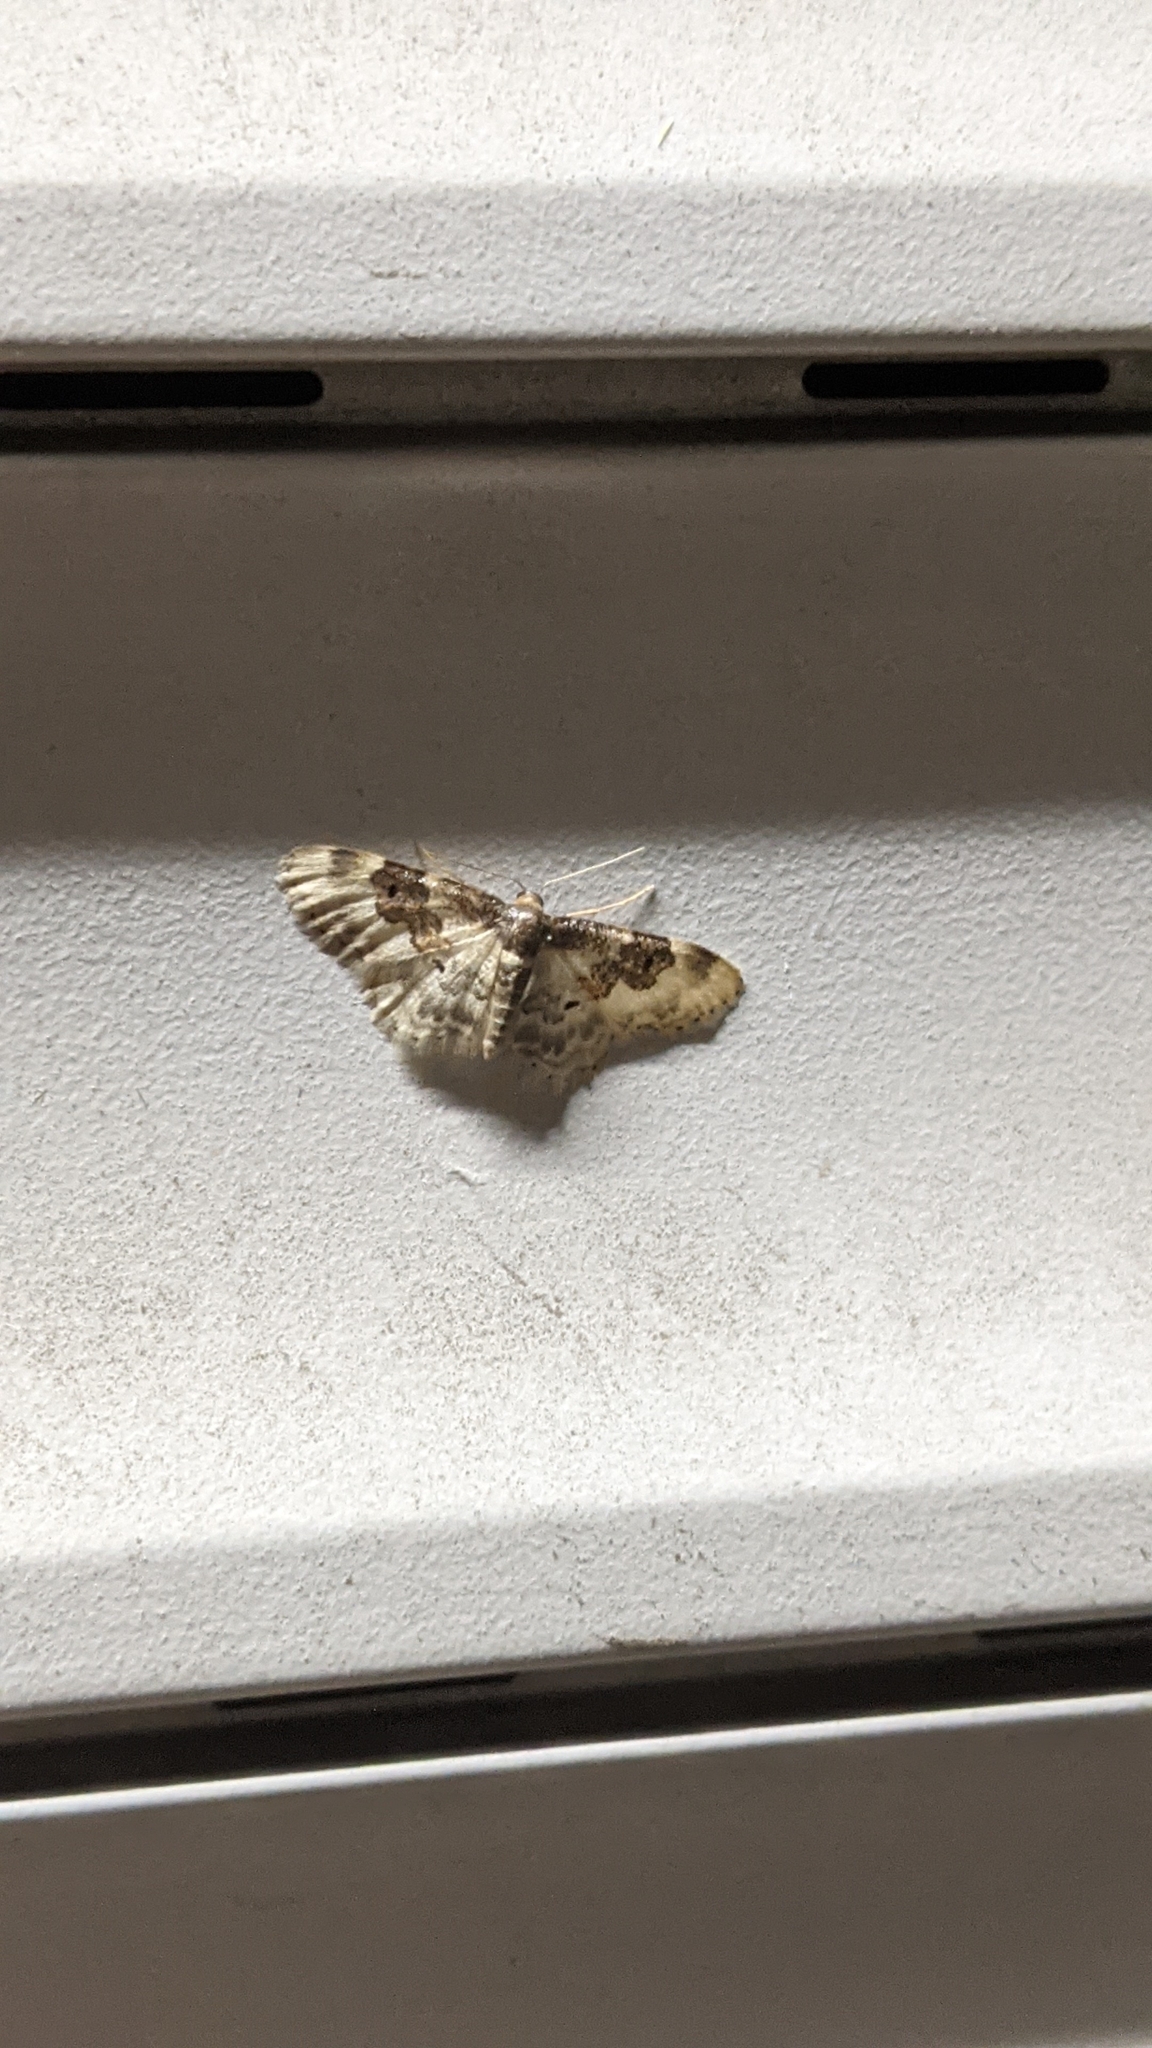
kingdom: Animalia
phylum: Arthropoda
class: Insecta
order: Lepidoptera
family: Geometridae
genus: Idaea
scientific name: Idaea rusticata
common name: Least carpet
